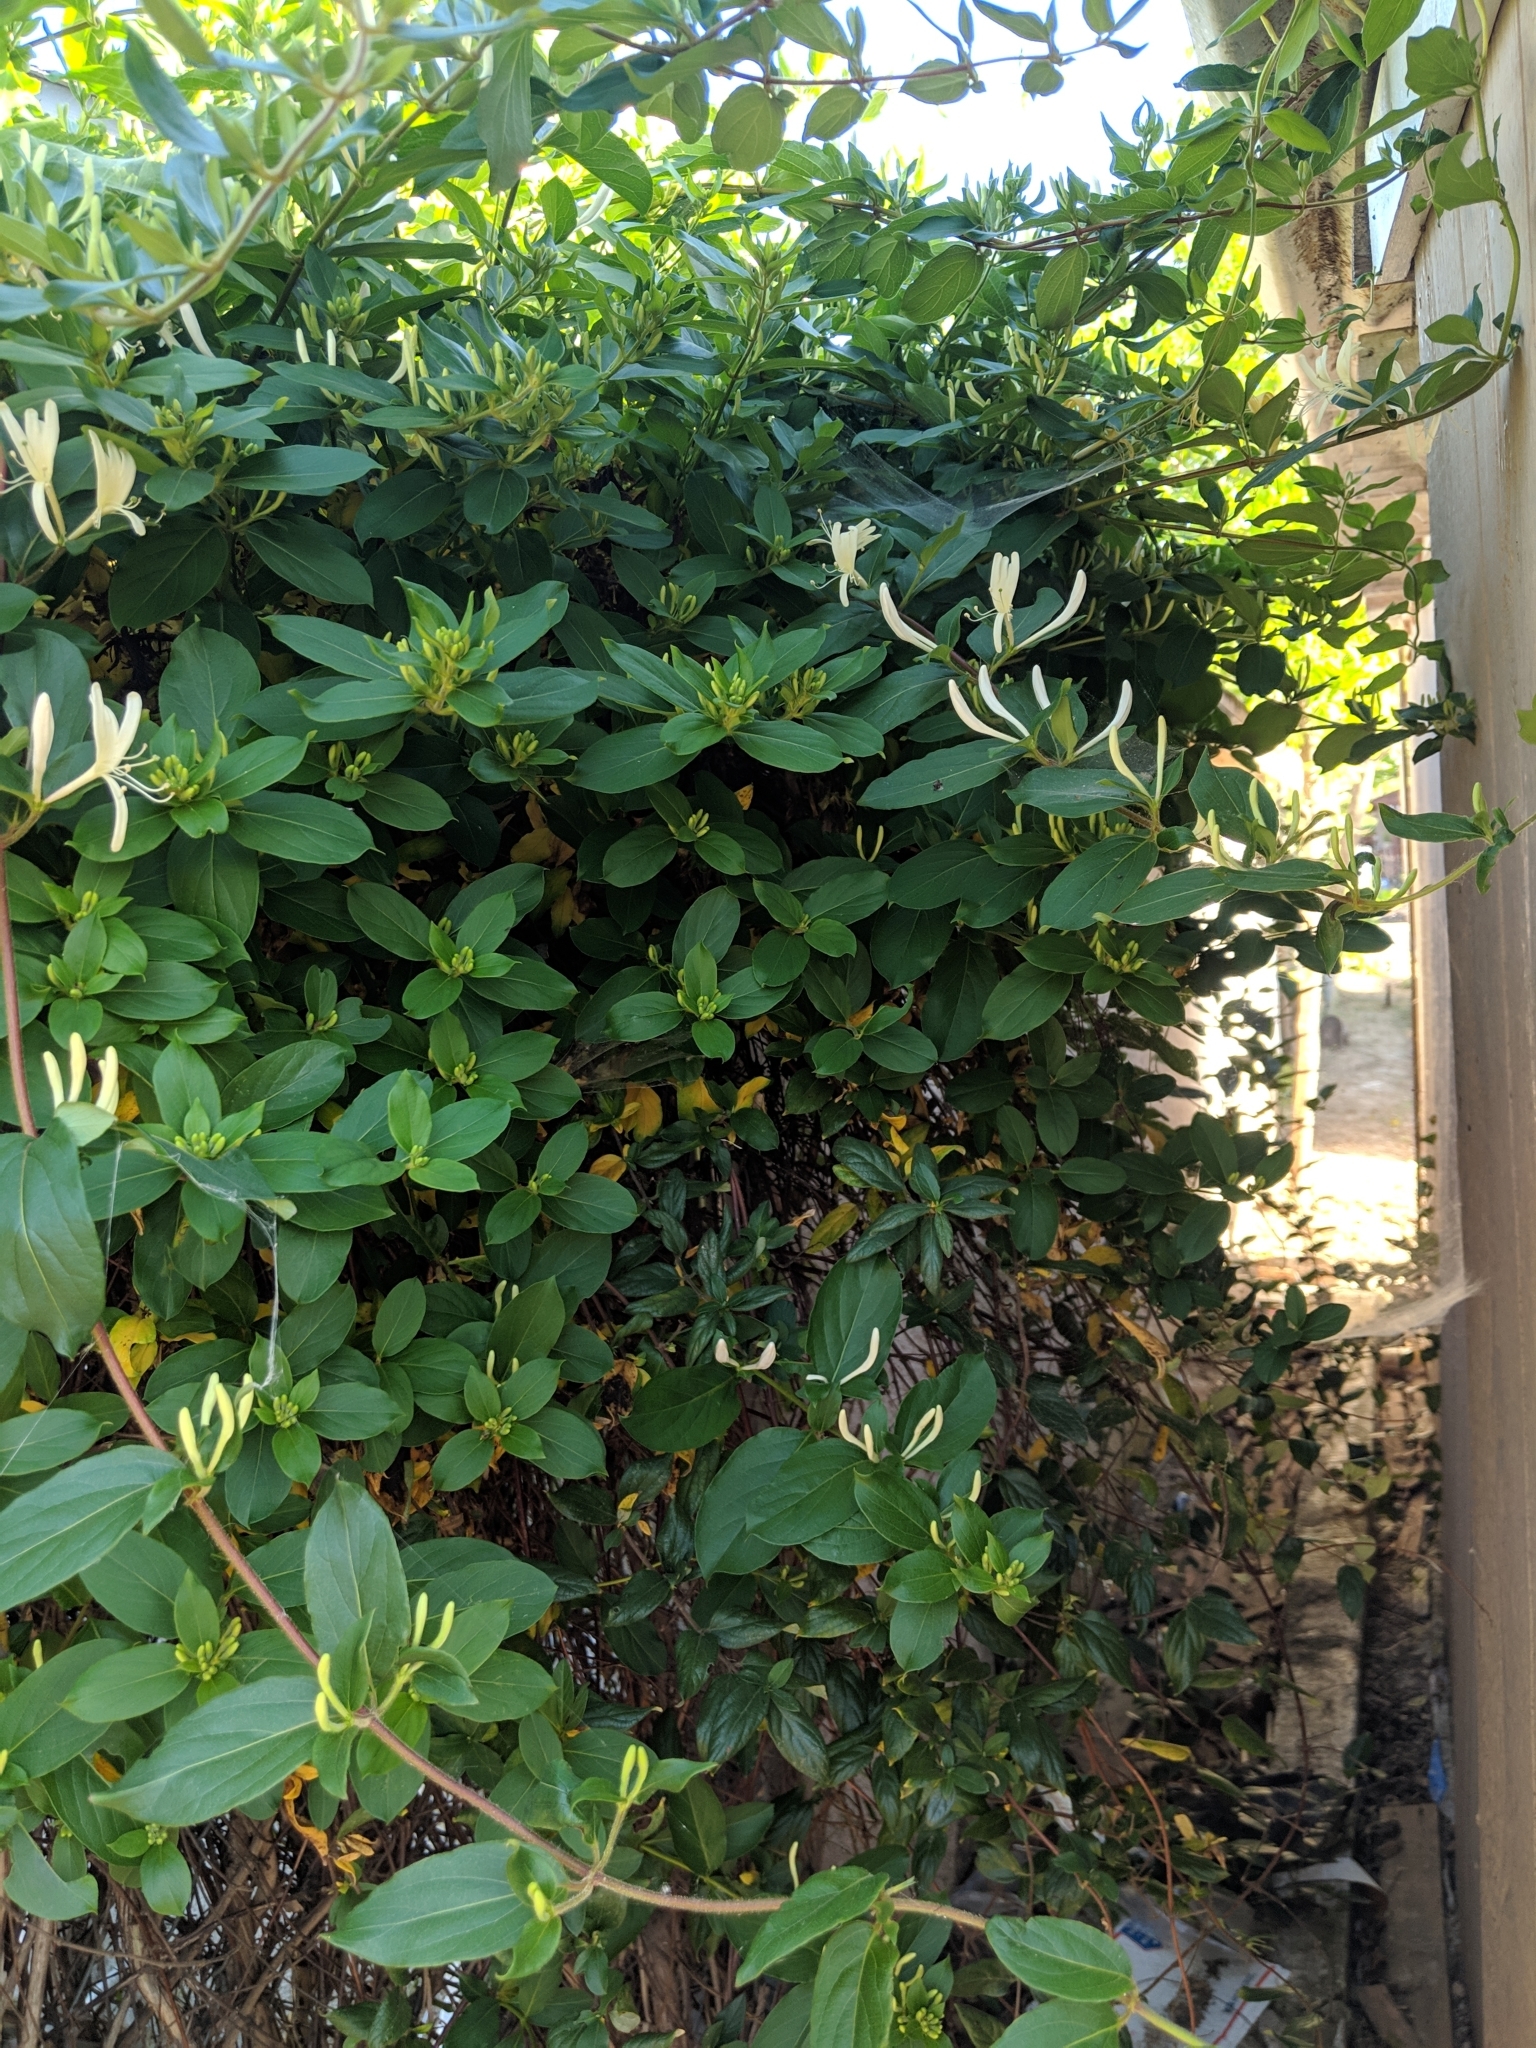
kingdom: Plantae
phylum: Tracheophyta
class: Magnoliopsida
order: Dipsacales
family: Caprifoliaceae
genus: Lonicera
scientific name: Lonicera japonica
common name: Japanese honeysuckle
